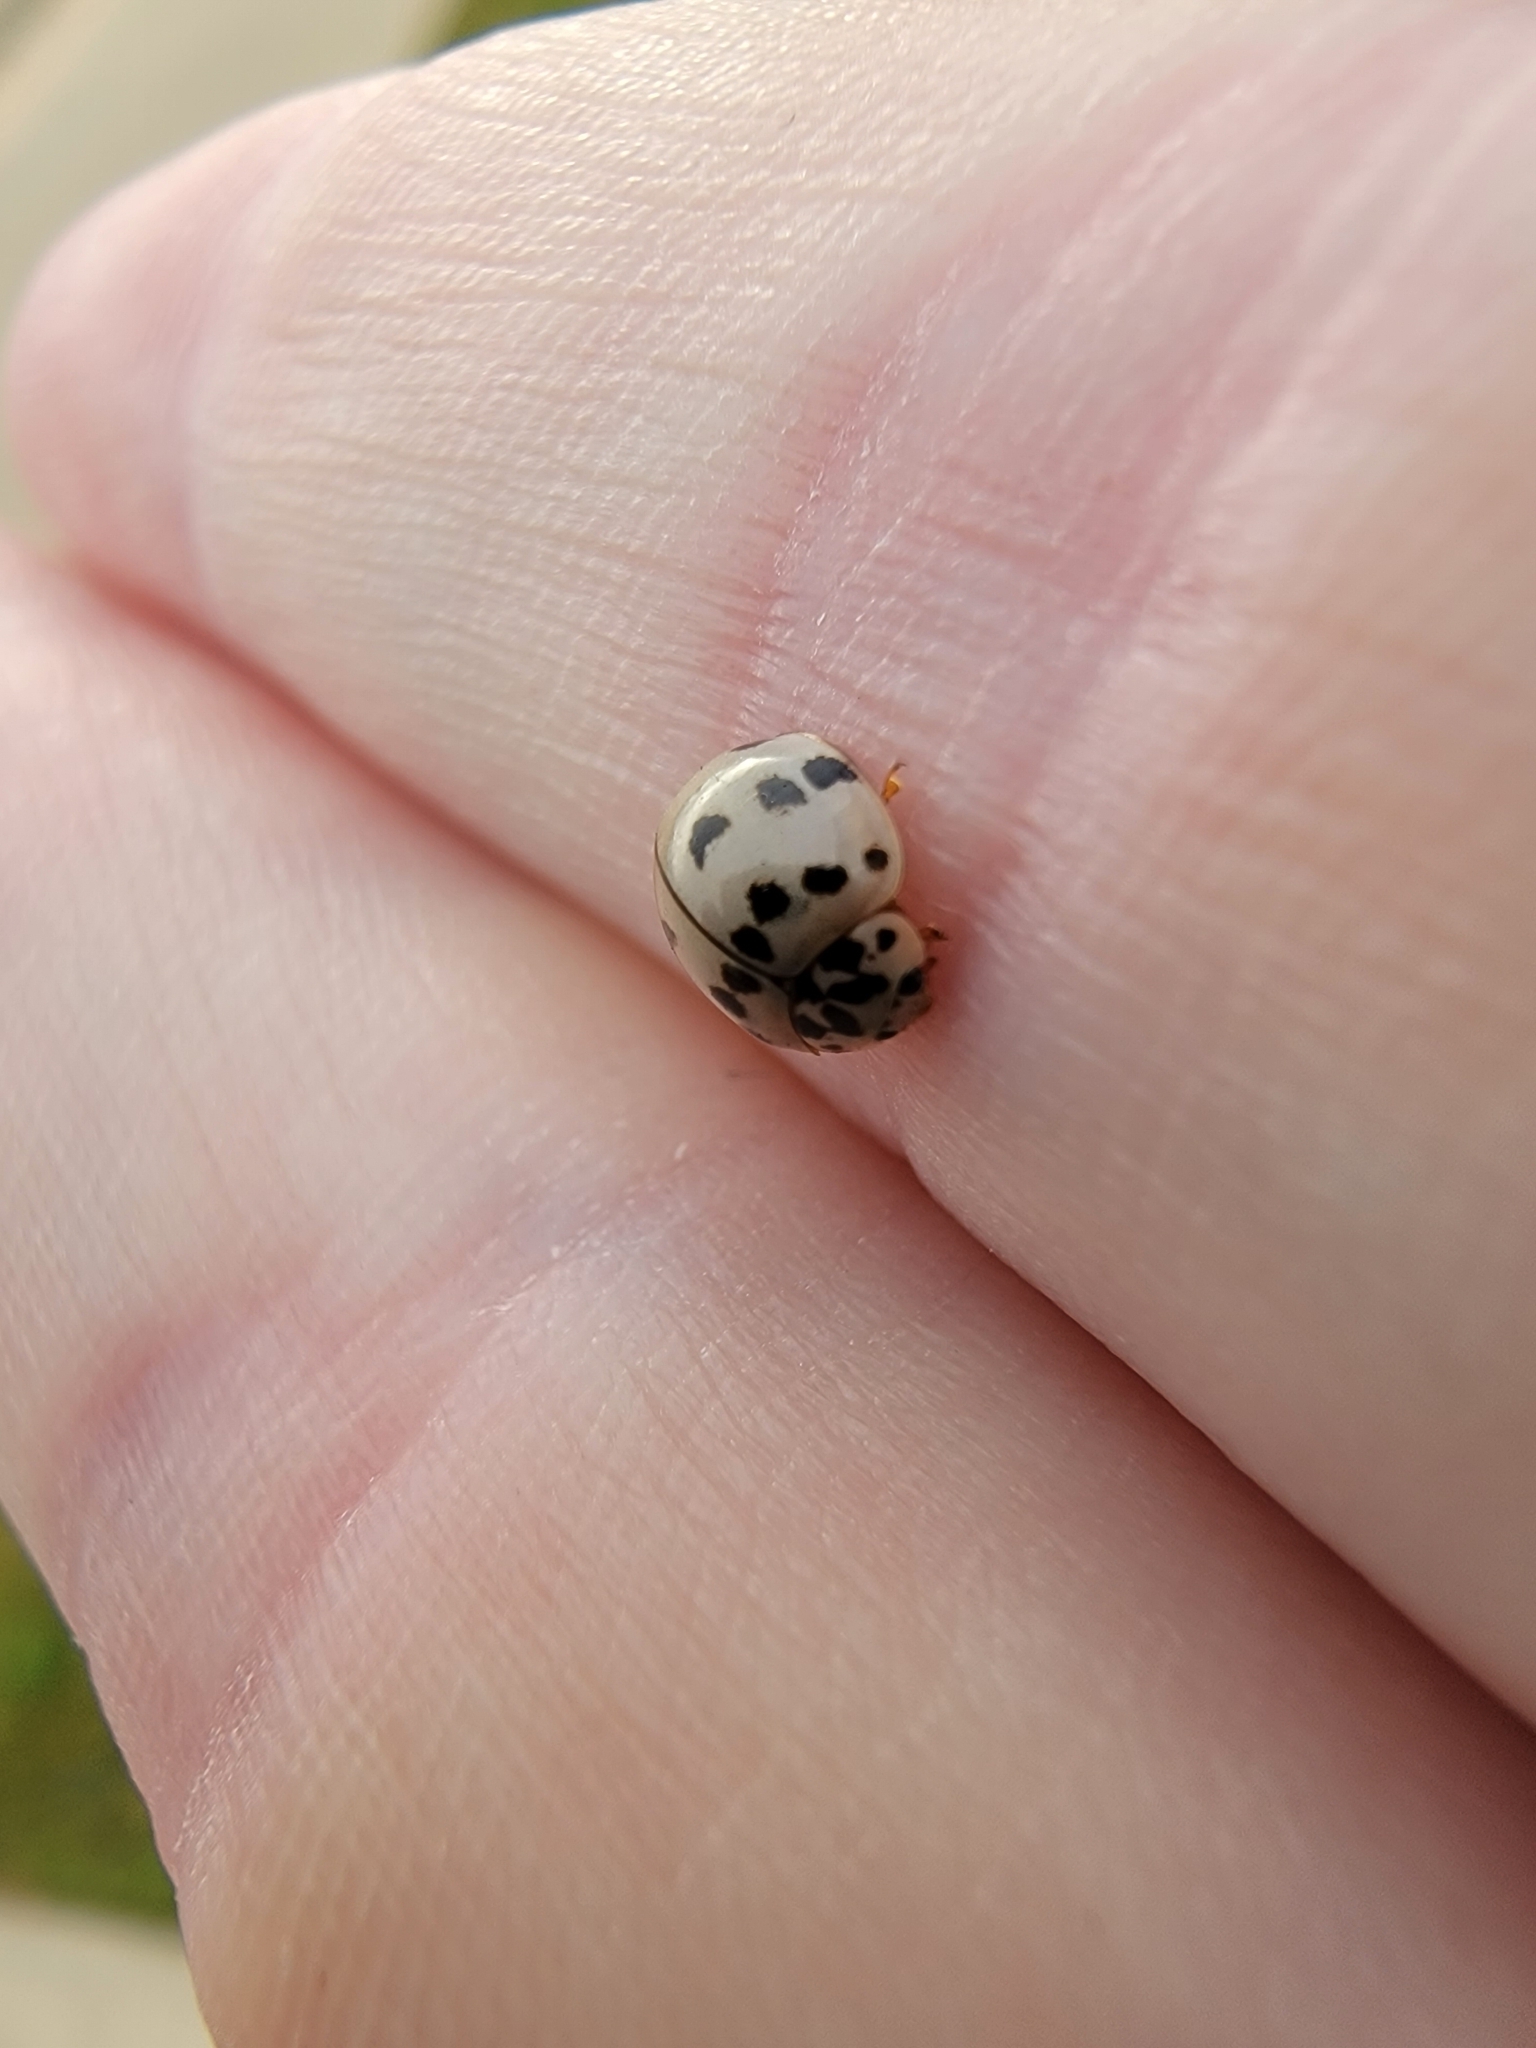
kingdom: Animalia
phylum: Arthropoda
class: Insecta
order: Coleoptera
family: Coccinellidae
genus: Olla
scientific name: Olla v-nigrum
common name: Ashy gray lady beetle
